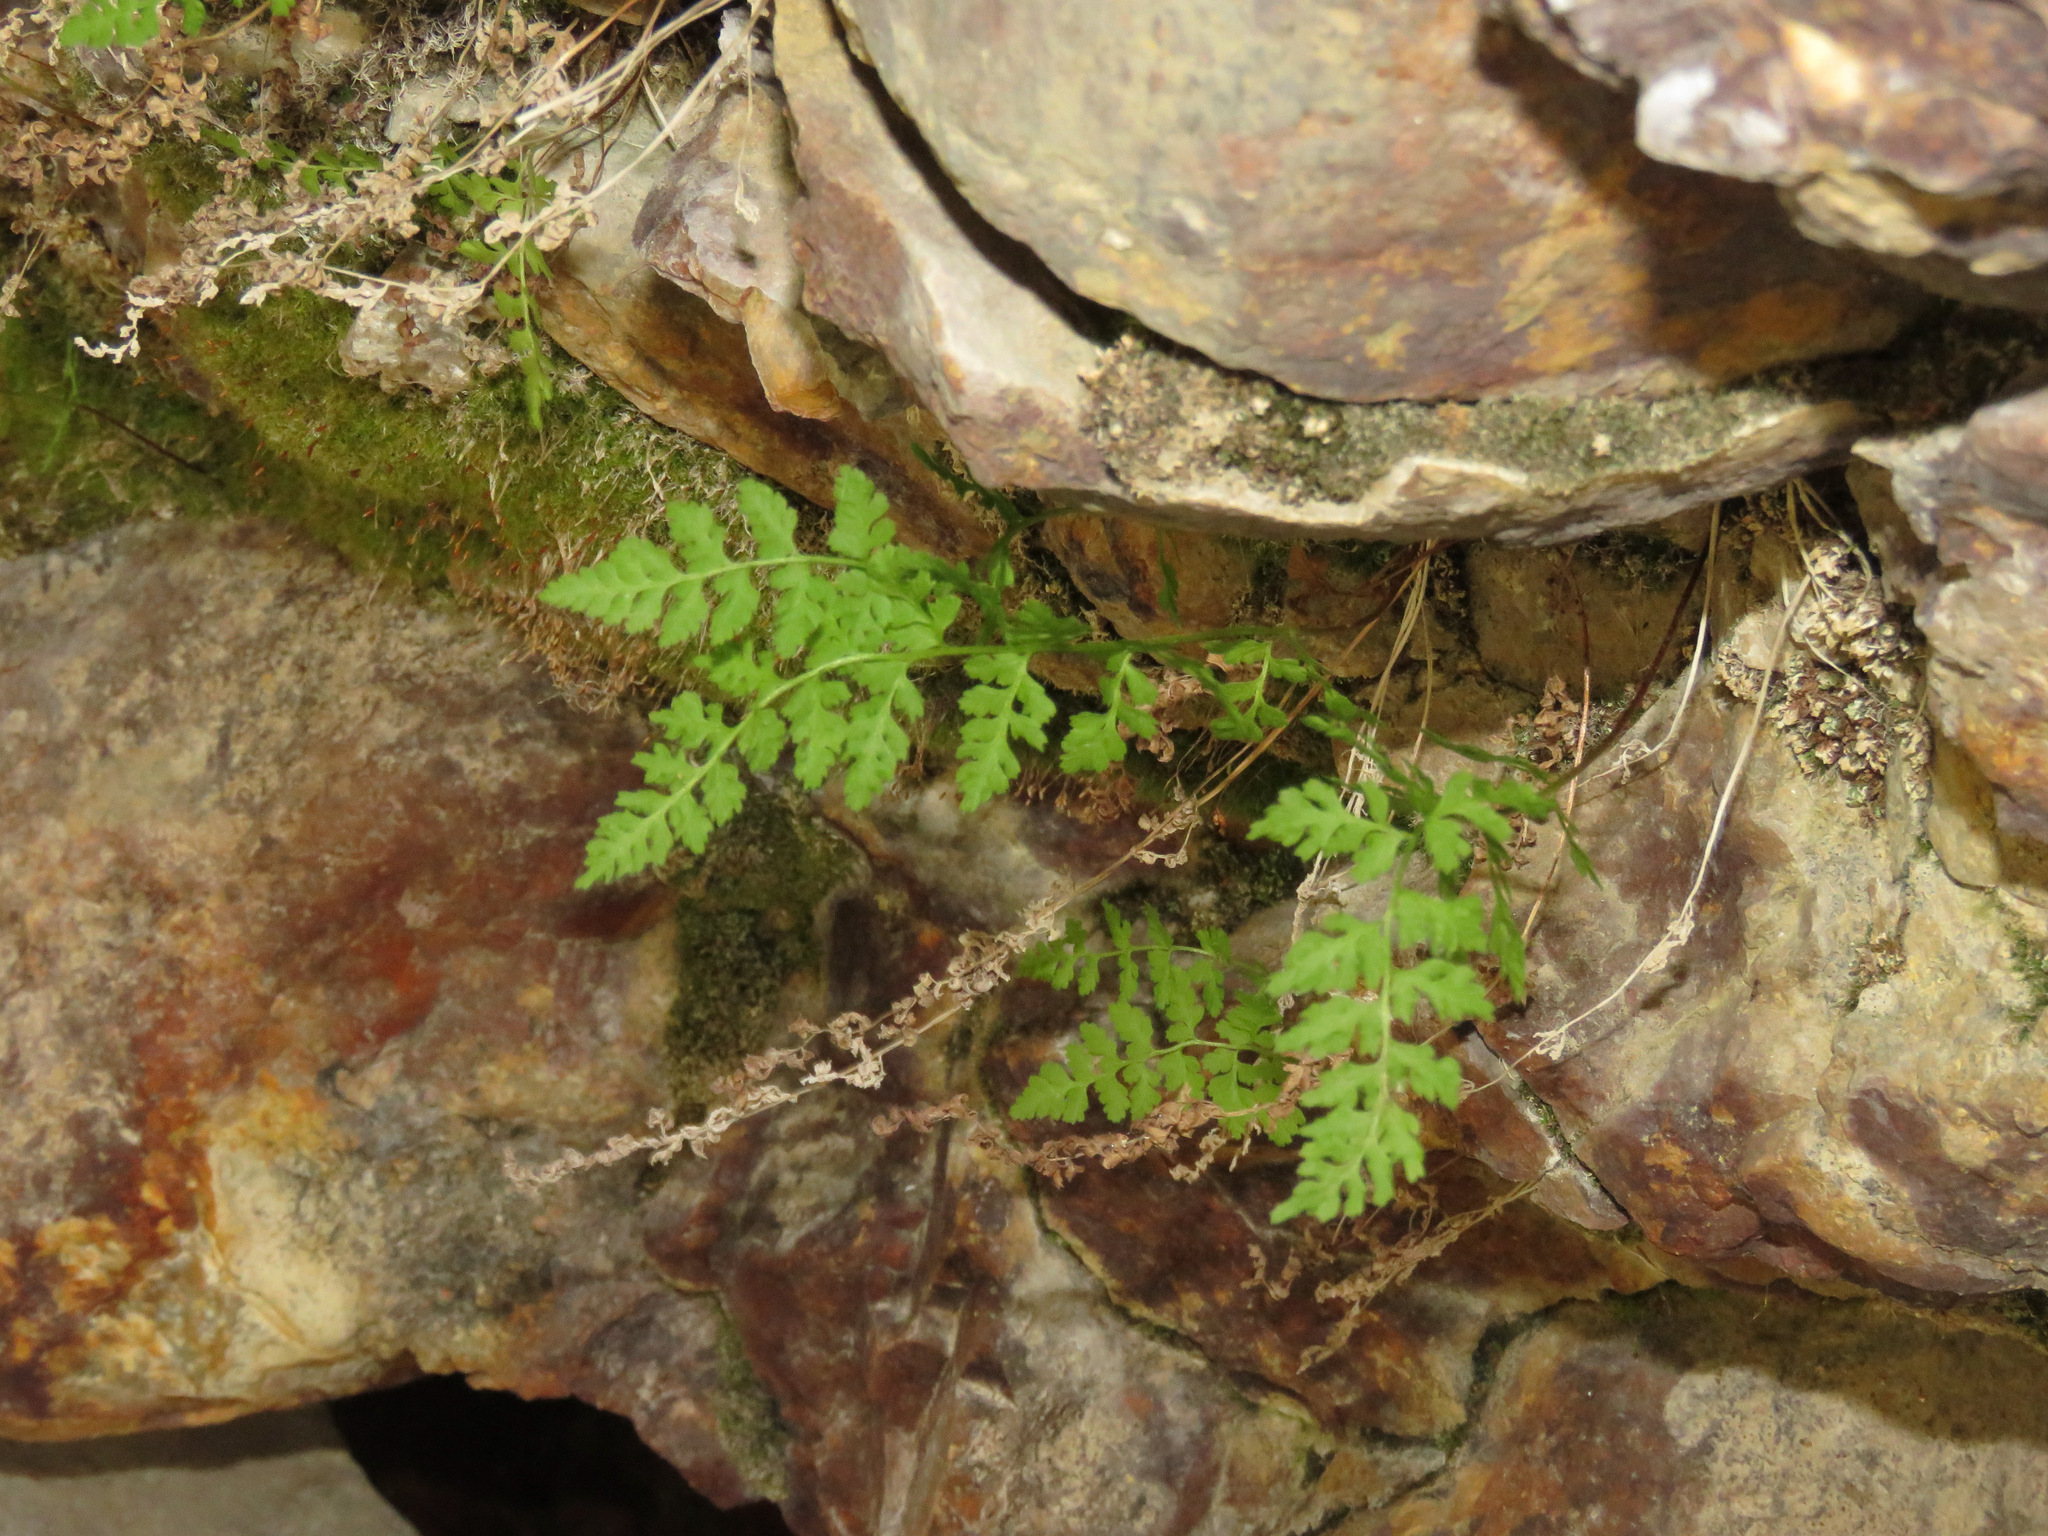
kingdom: Plantae
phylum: Tracheophyta
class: Polypodiopsida
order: Polypodiales
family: Cystopteridaceae
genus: Cystopteris
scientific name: Cystopteris fragilis
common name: Brittle bladder fern
